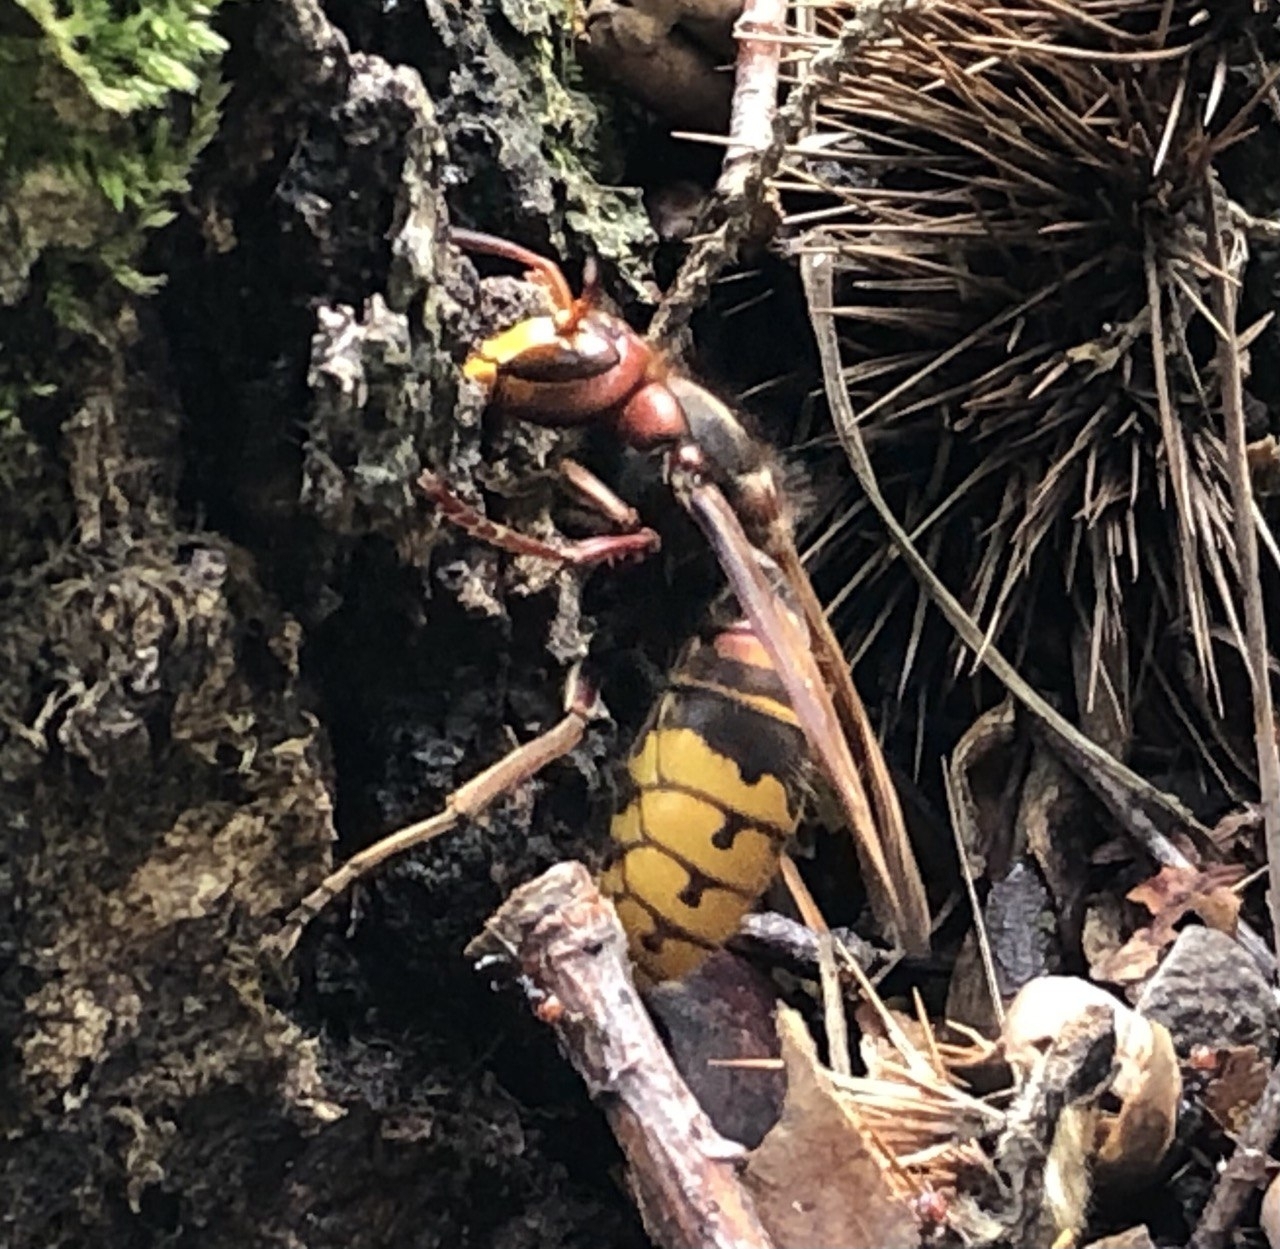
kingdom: Animalia
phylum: Arthropoda
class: Insecta
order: Hymenoptera
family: Vespidae
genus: Vespa
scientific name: Vespa crabro
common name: Hornet
